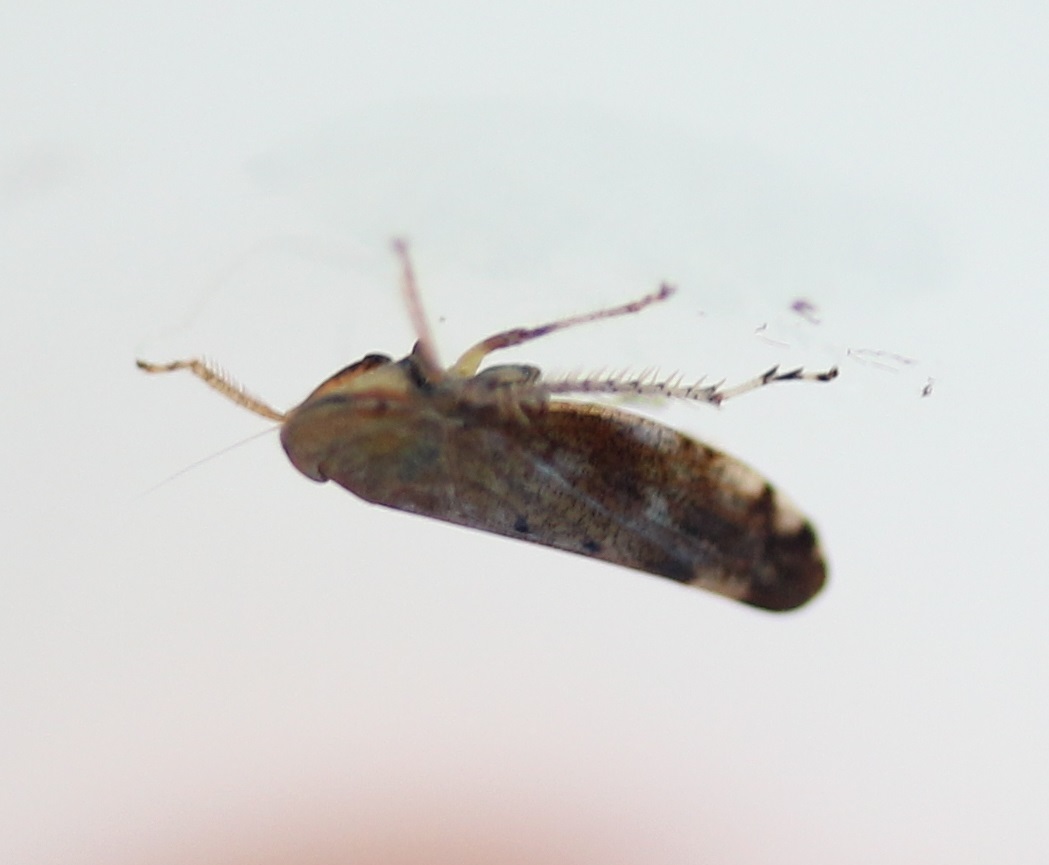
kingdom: Animalia
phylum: Arthropoda
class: Insecta
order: Hemiptera
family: Cicadellidae
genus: Fieberiella
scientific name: Fieberiella florii
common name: Flor’s leafhopper
